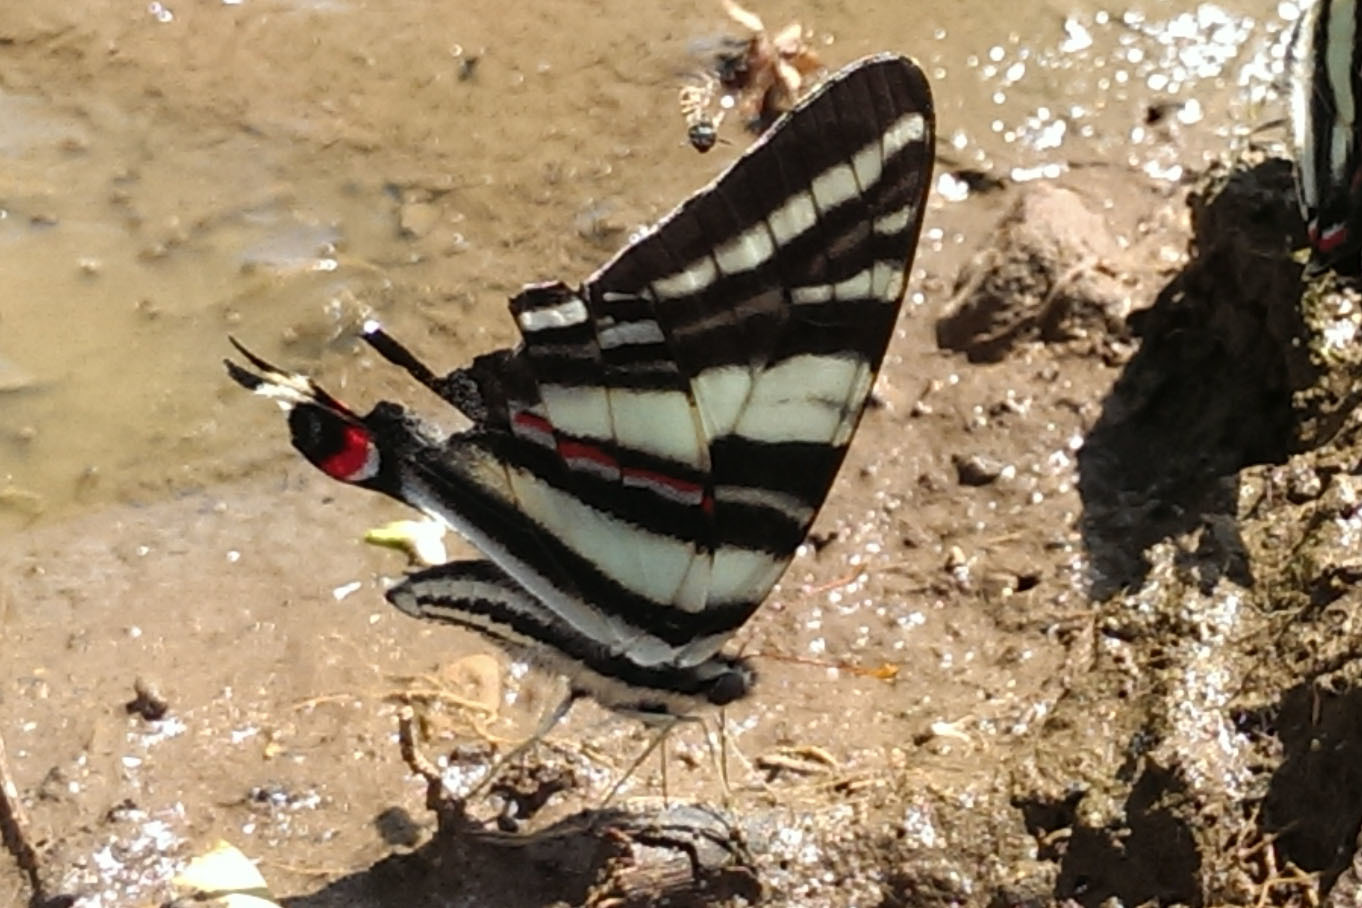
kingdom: Animalia
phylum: Arthropoda
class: Insecta
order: Lepidoptera
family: Papilionidae
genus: Protographium
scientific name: Protographium marcellus
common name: Zebra swallowtail
